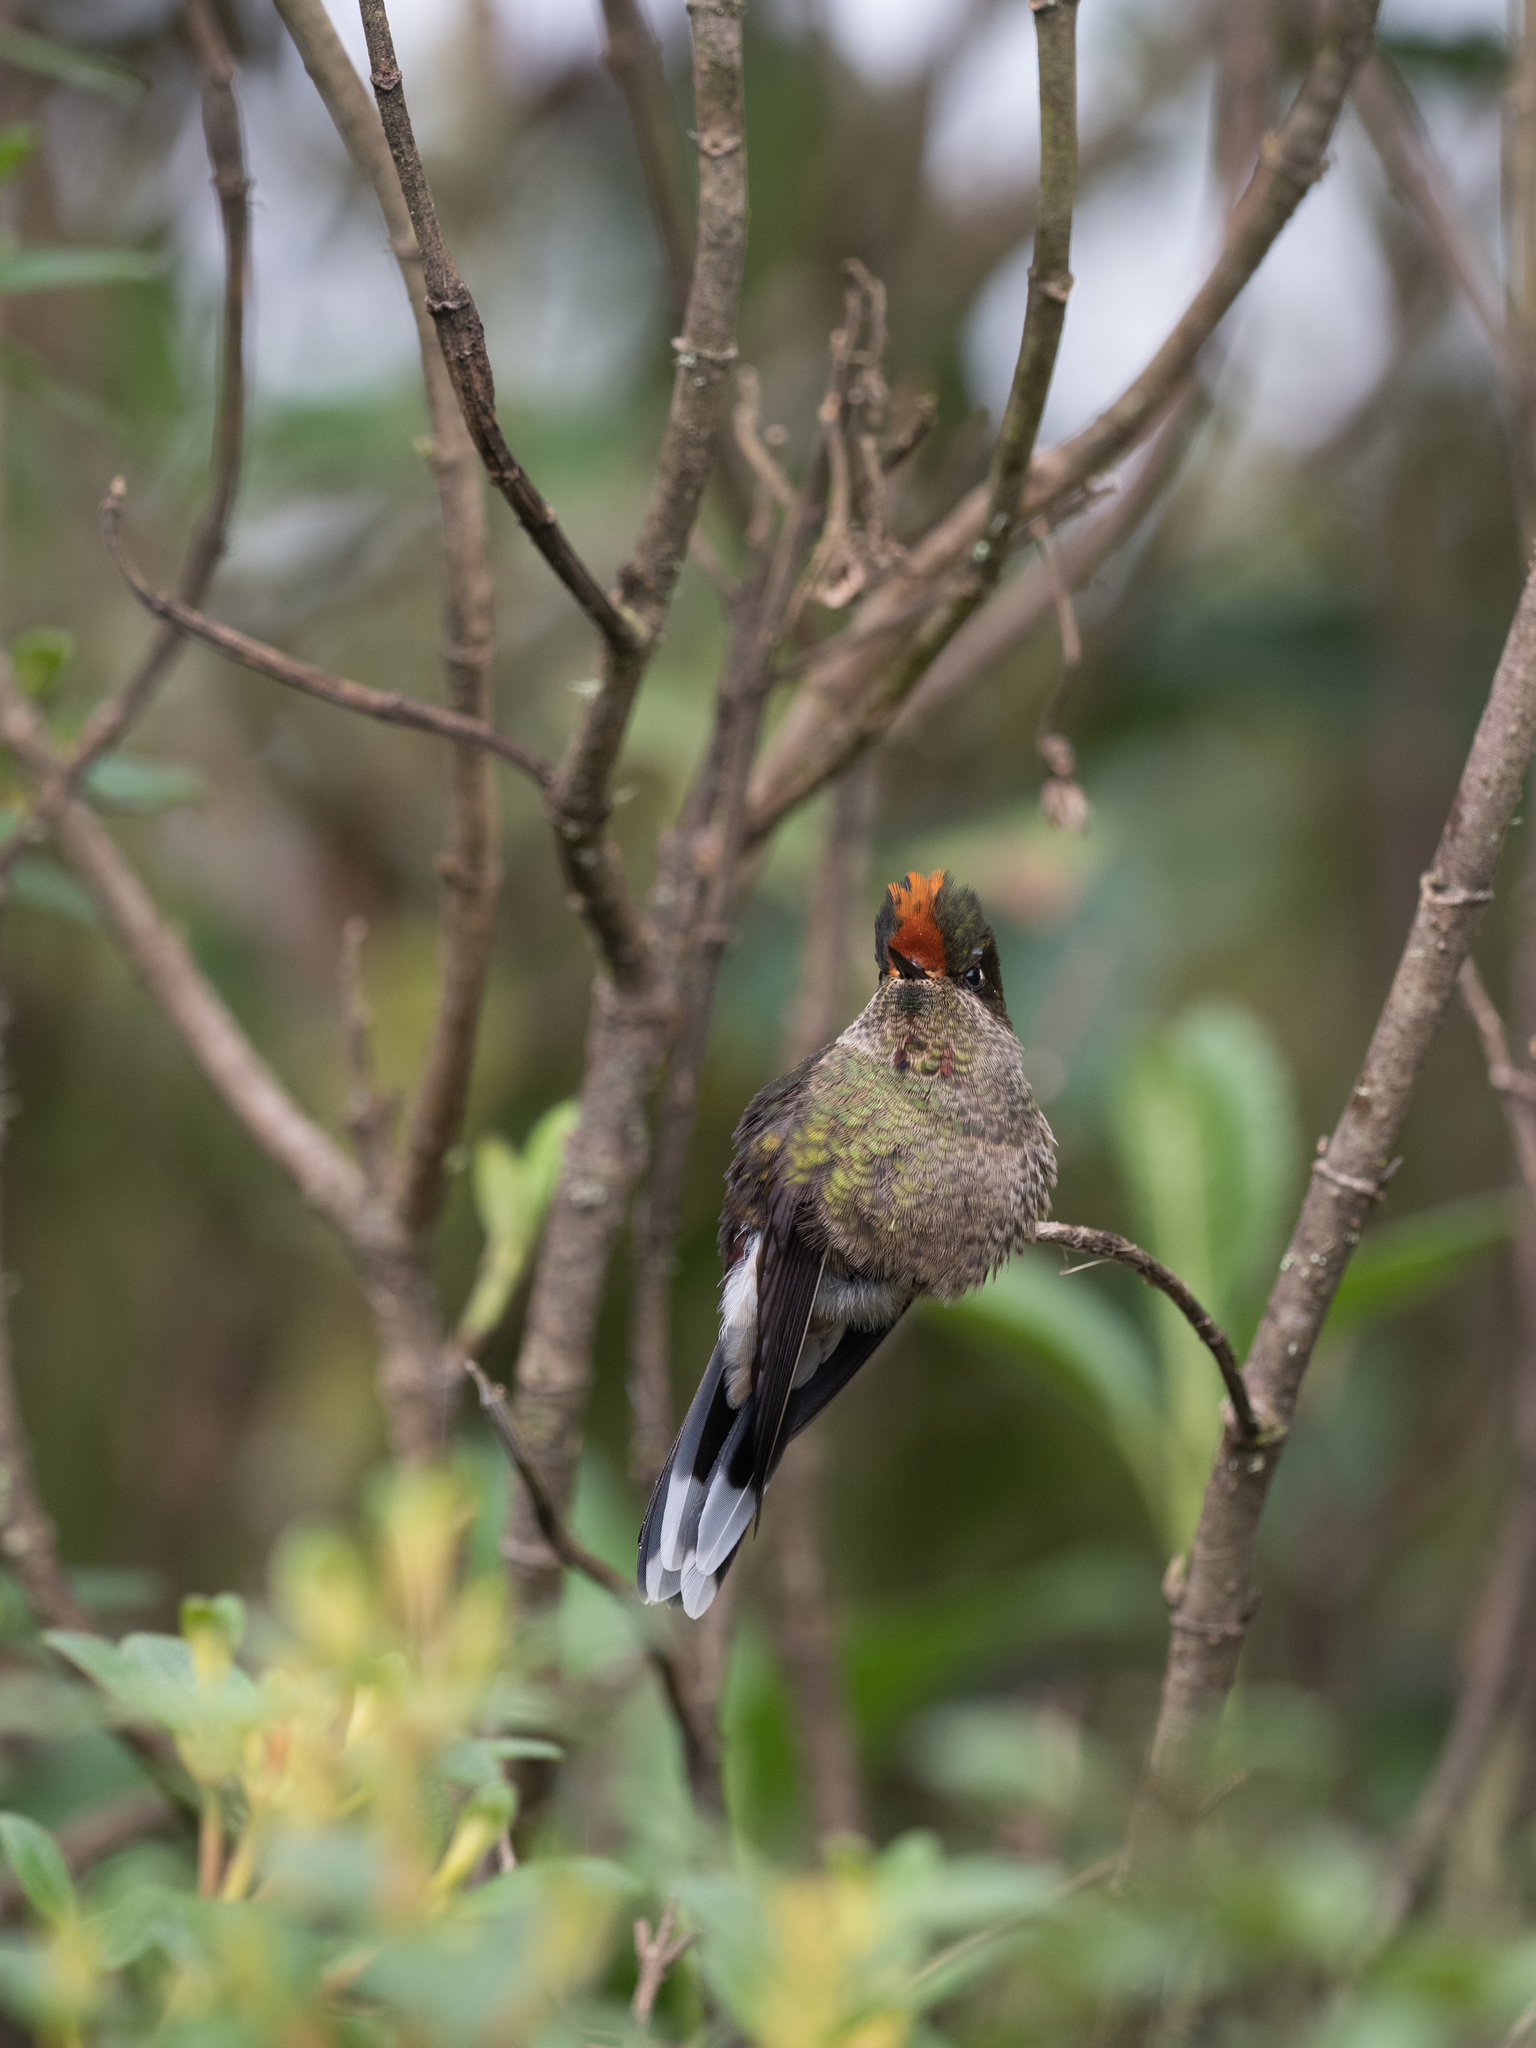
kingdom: Animalia
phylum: Chordata
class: Aves
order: Apodiformes
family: Trochilidae
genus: Chalcostigma
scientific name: Chalcostigma herrani
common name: Rainbow-bearded thornbill
